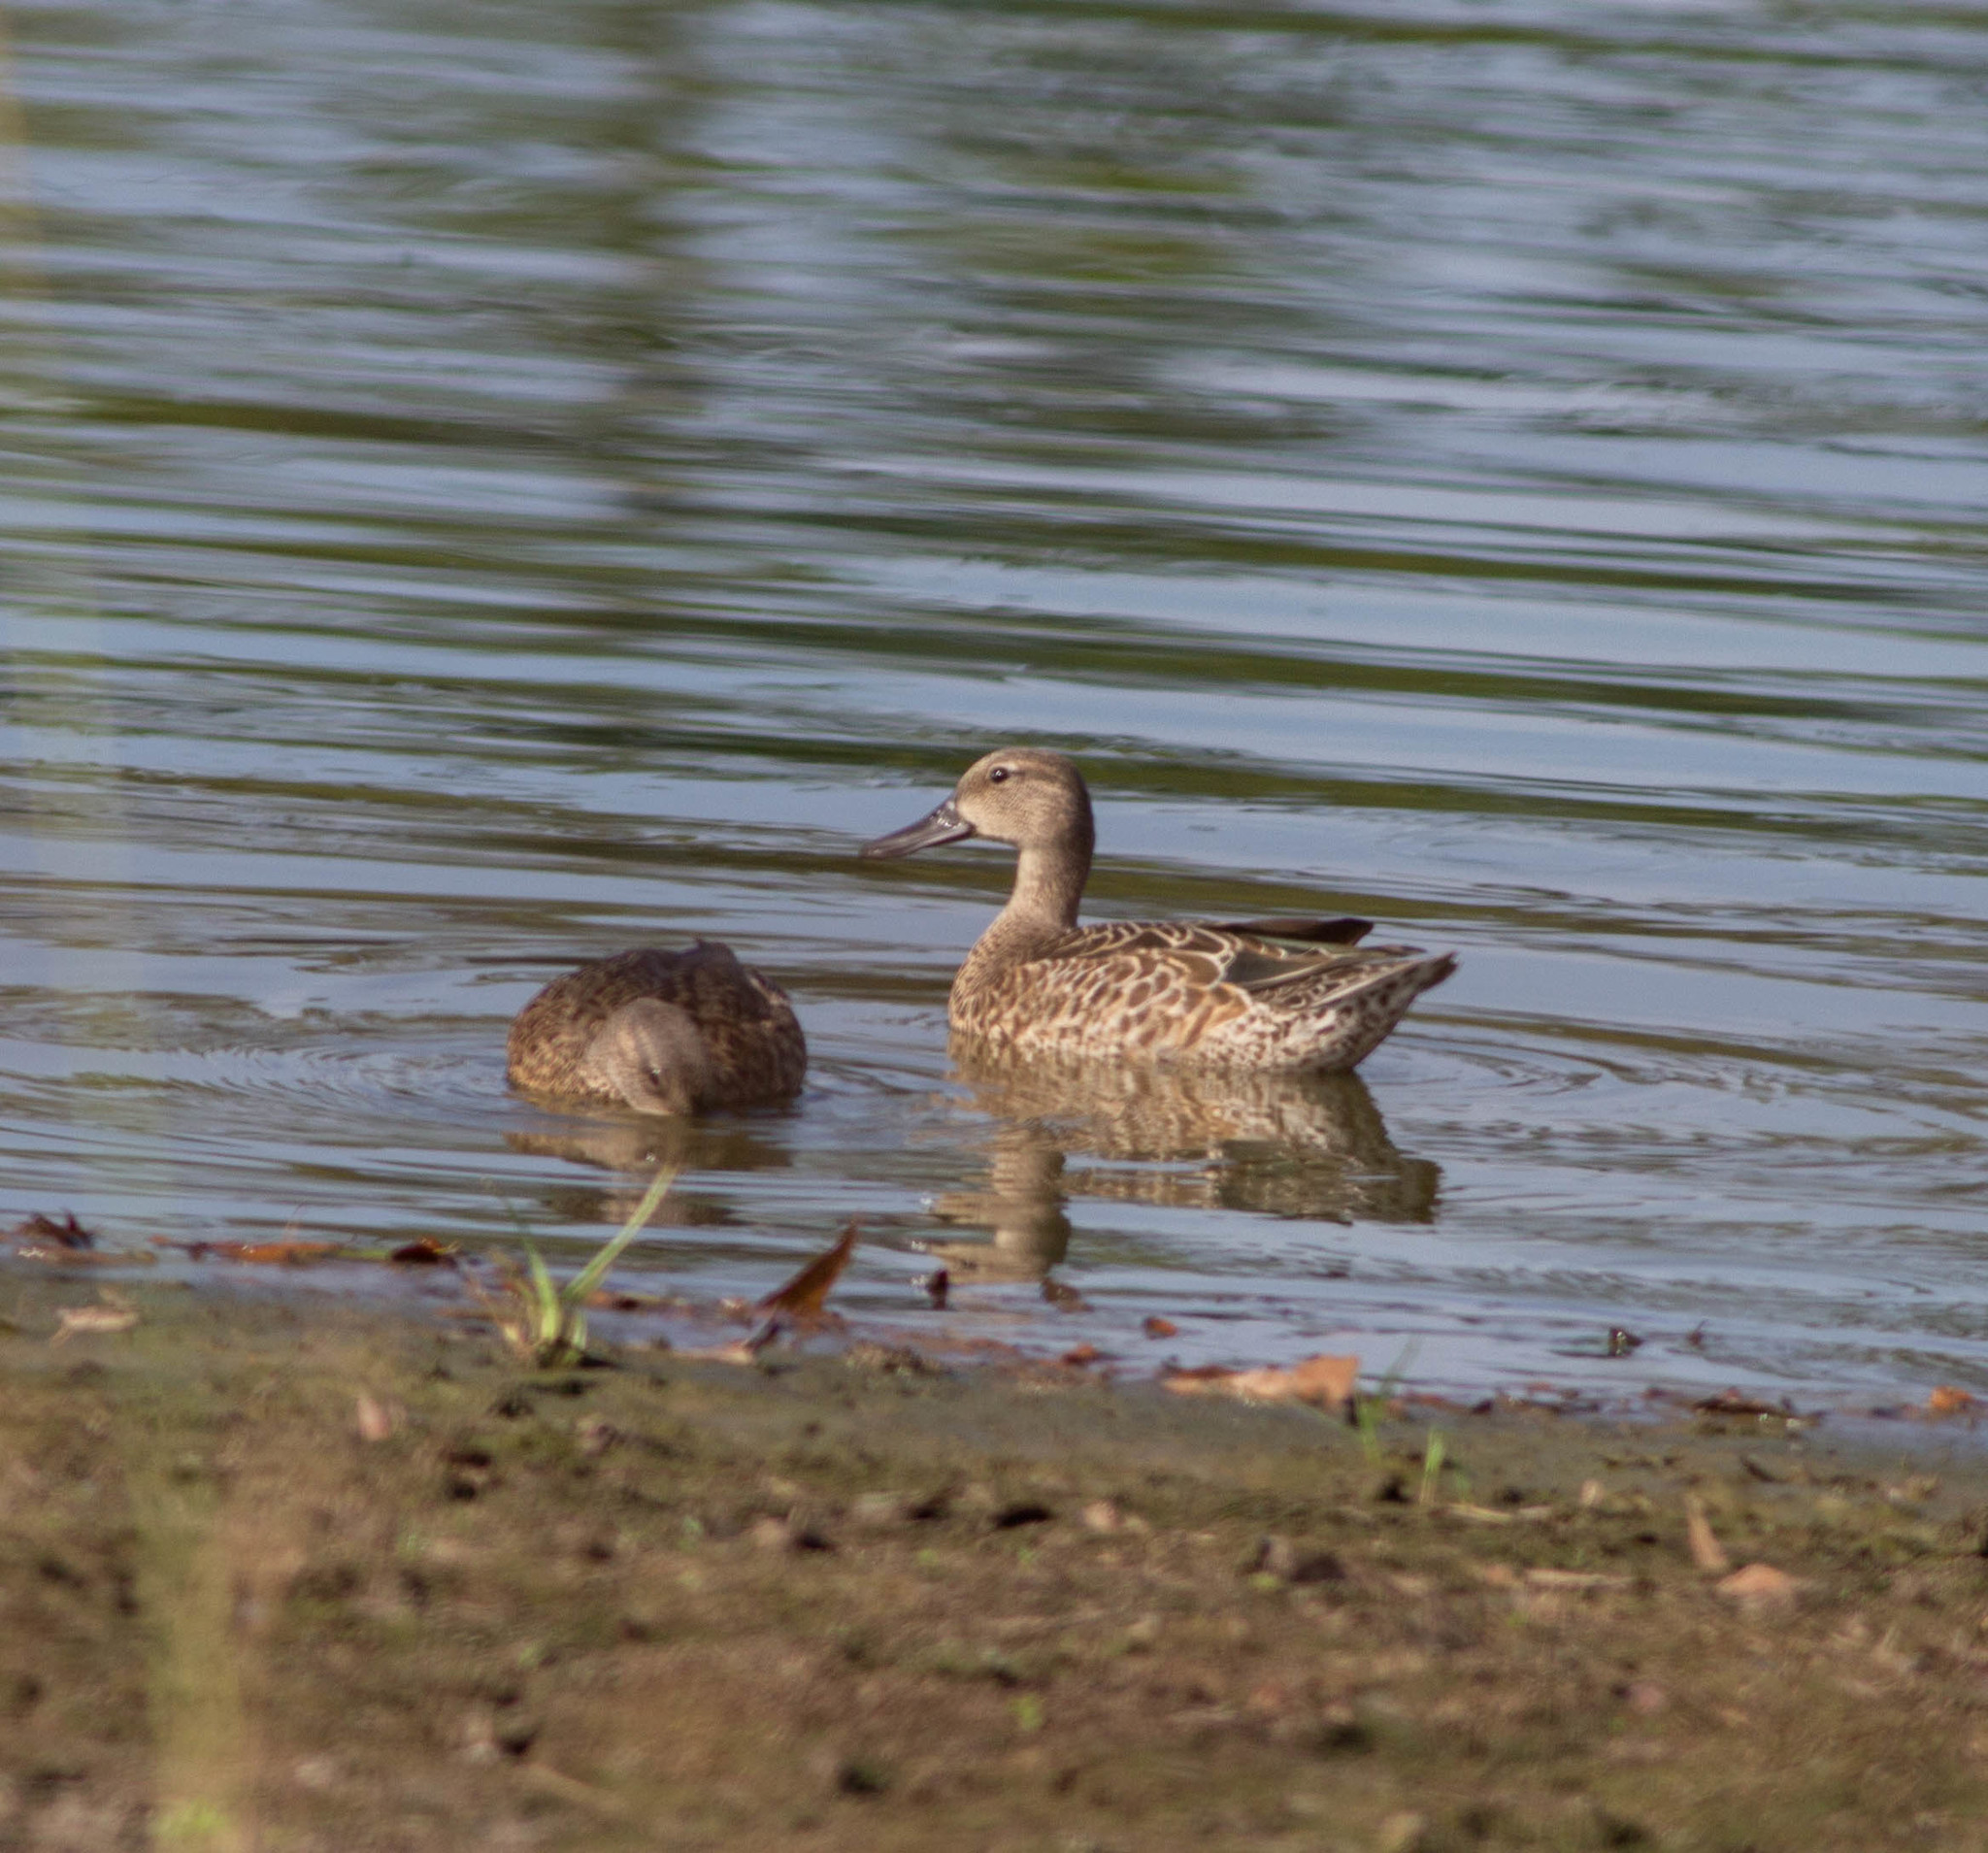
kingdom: Animalia
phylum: Chordata
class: Aves
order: Anseriformes
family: Anatidae
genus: Spatula
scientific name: Spatula discors
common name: Blue-winged teal
